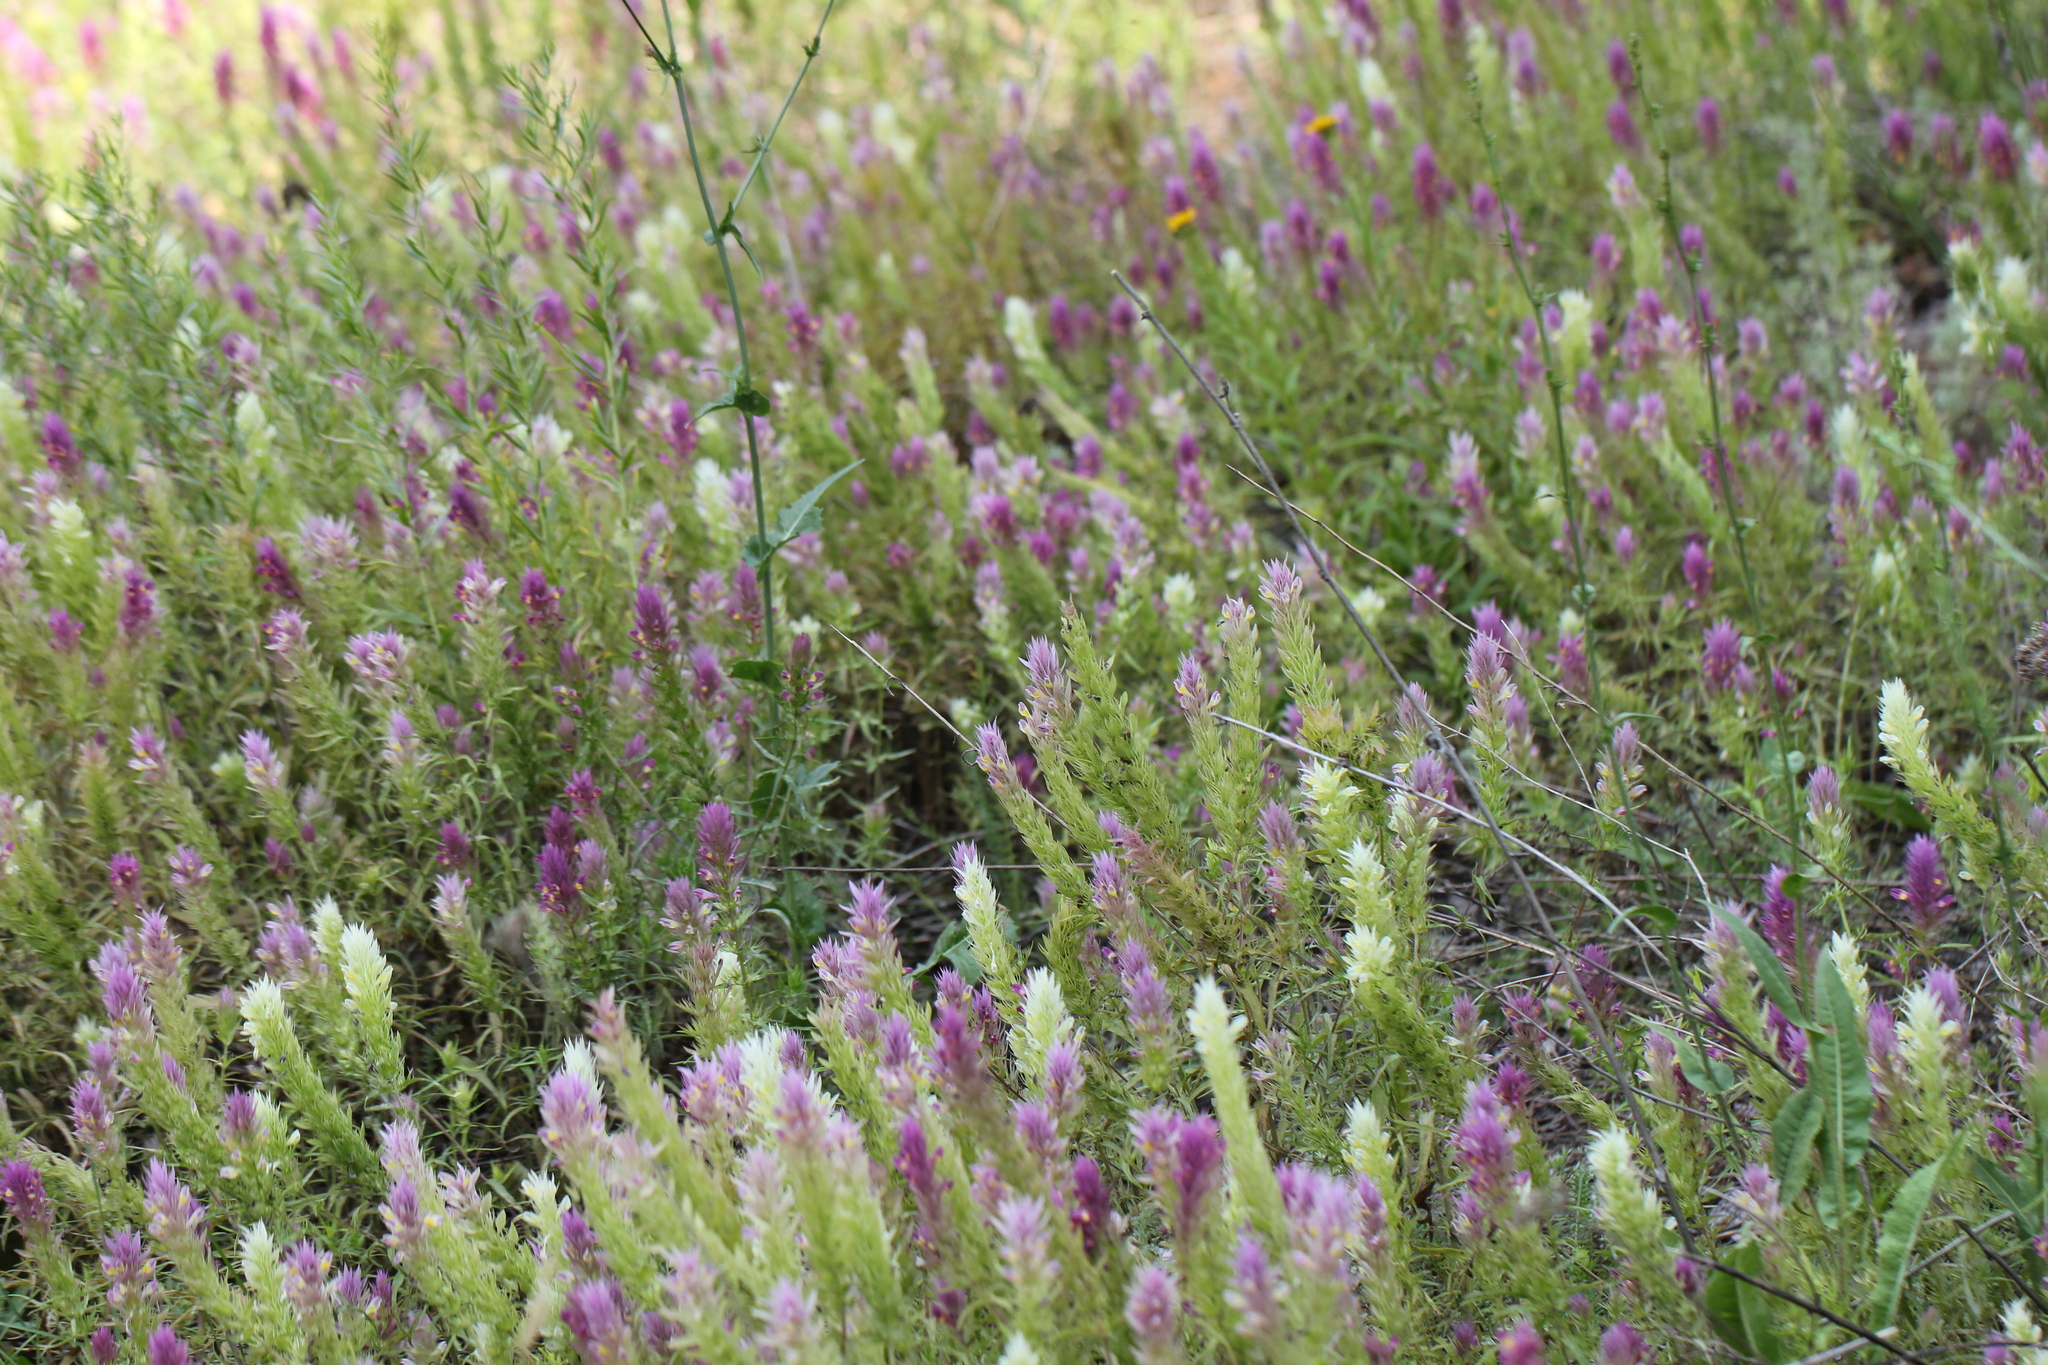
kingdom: Plantae
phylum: Tracheophyta
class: Magnoliopsida
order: Lamiales
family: Orobanchaceae
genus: Melampyrum
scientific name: Melampyrum arvense
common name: Field cow-wheat
